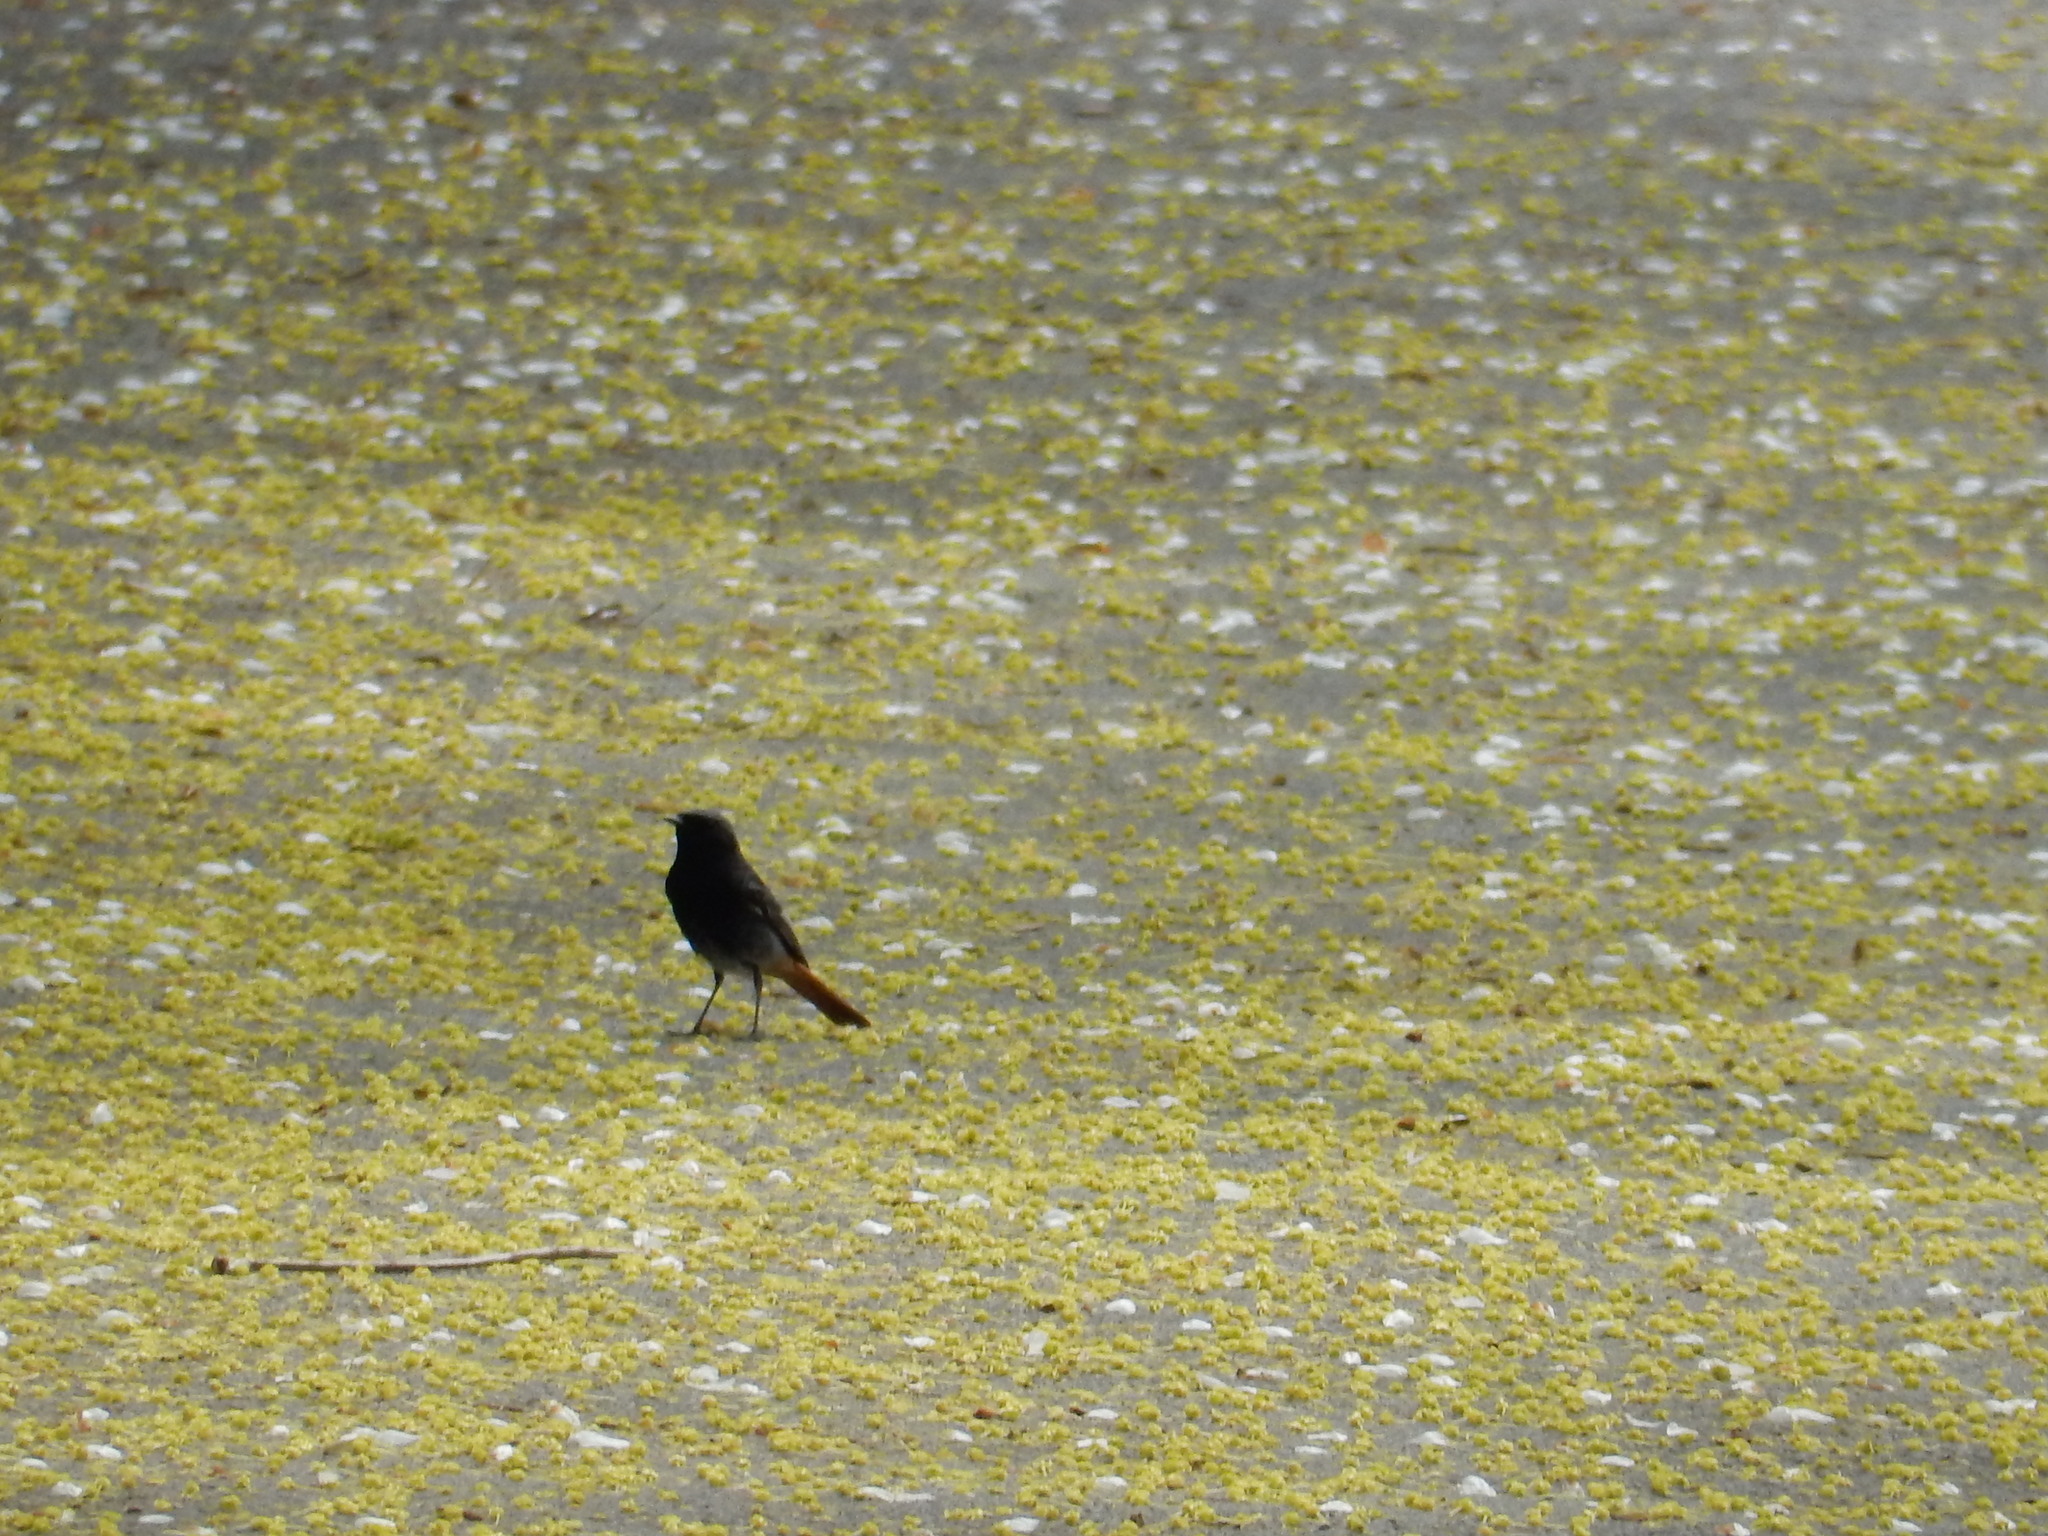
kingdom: Animalia
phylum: Chordata
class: Aves
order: Passeriformes
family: Muscicapidae
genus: Phoenicurus
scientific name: Phoenicurus ochruros
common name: Black redstart
